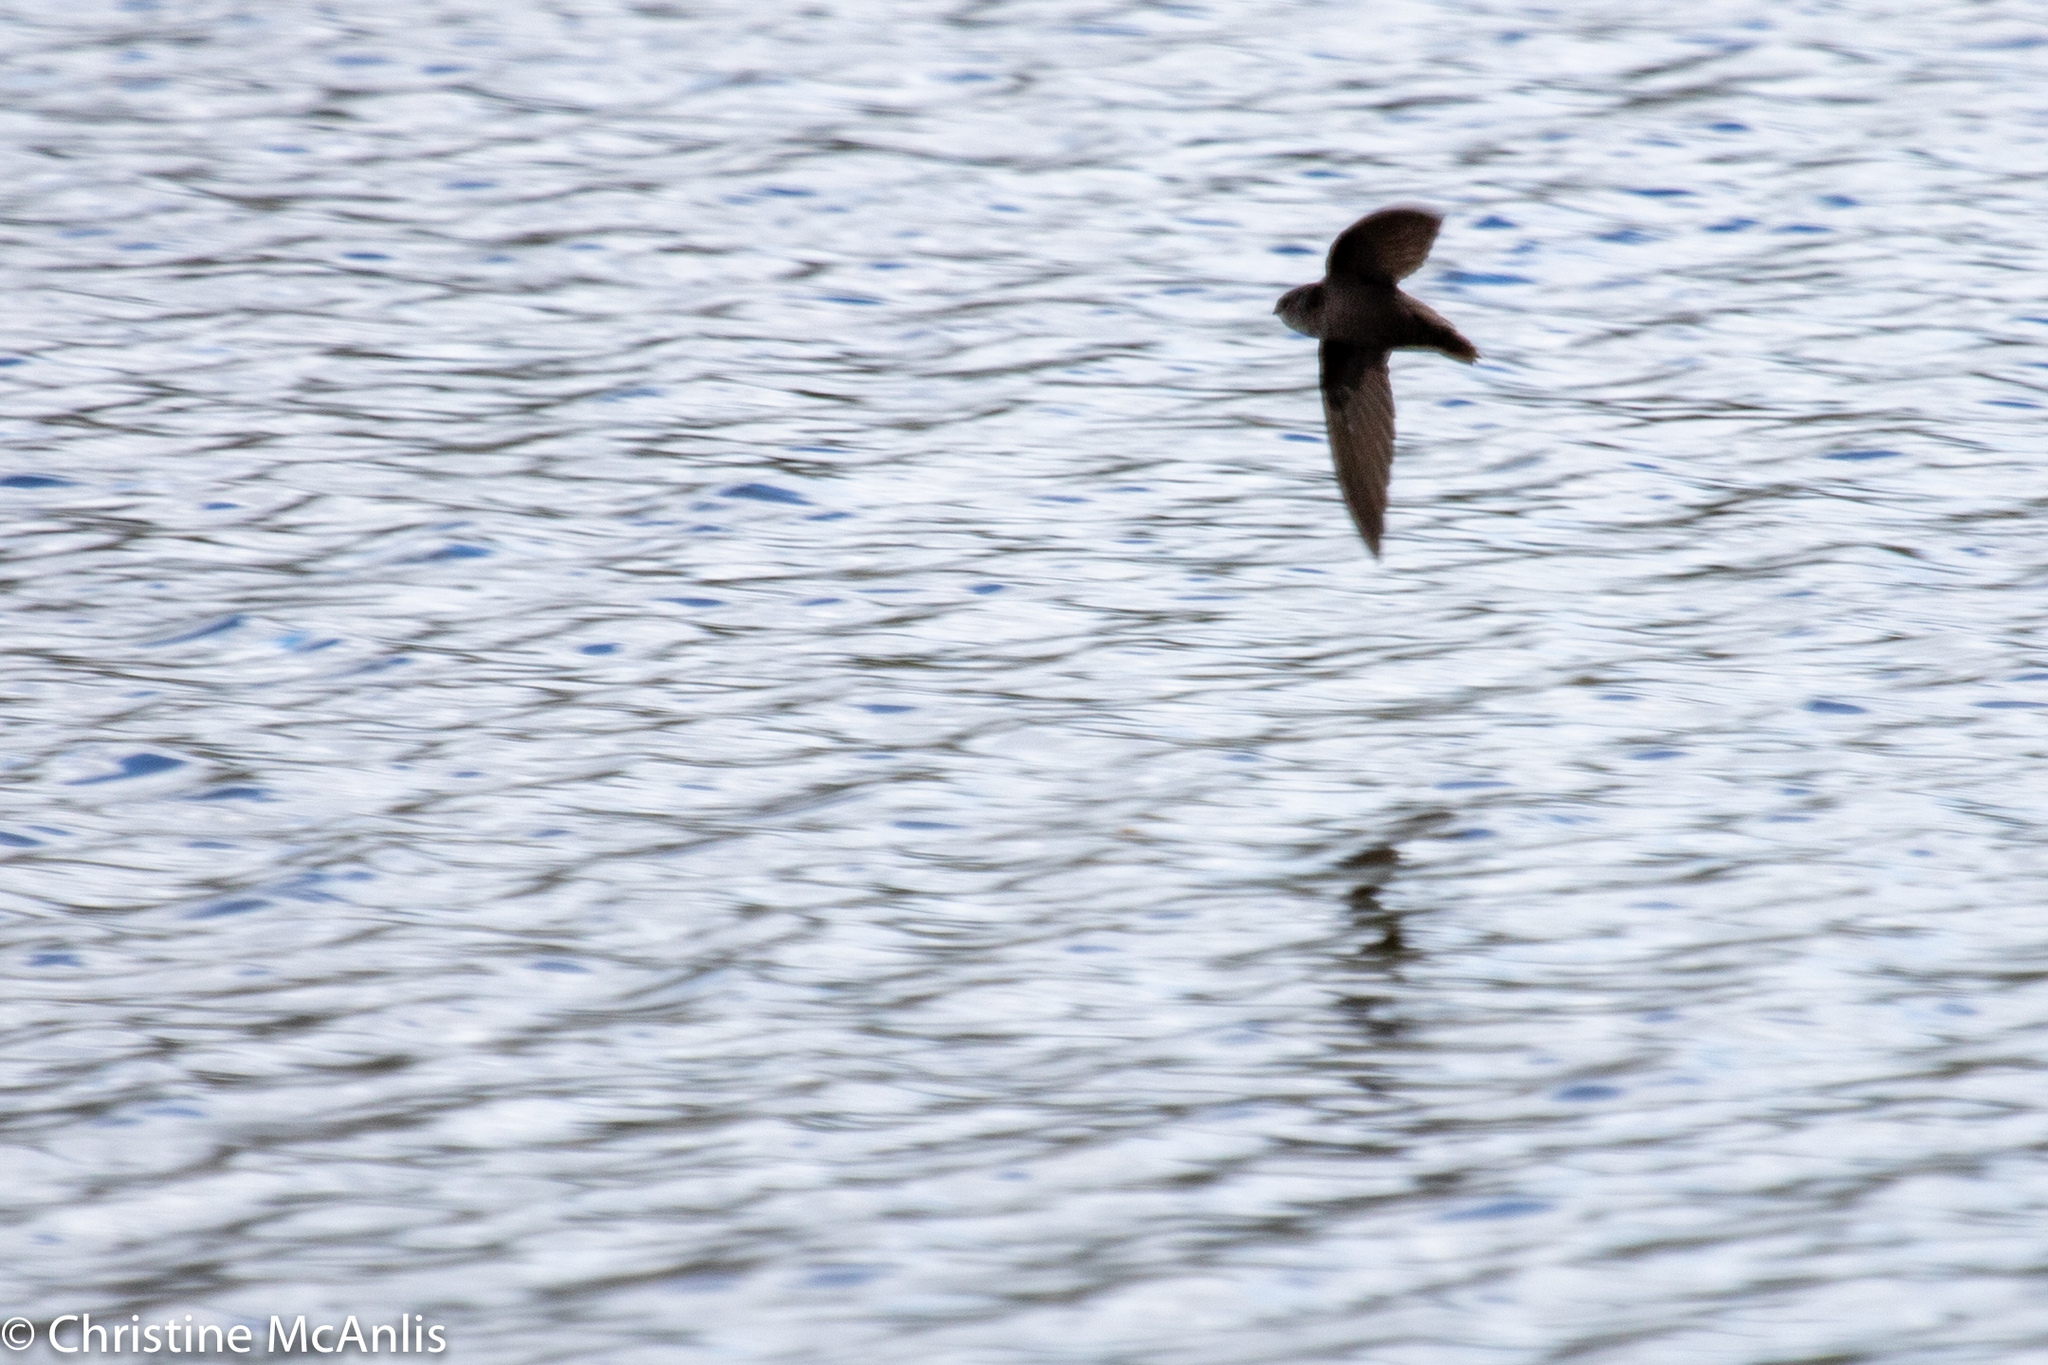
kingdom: Animalia
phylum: Chordata
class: Aves
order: Apodiformes
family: Apodidae
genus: Chaetura
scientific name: Chaetura pelagica
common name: Chimney swift
